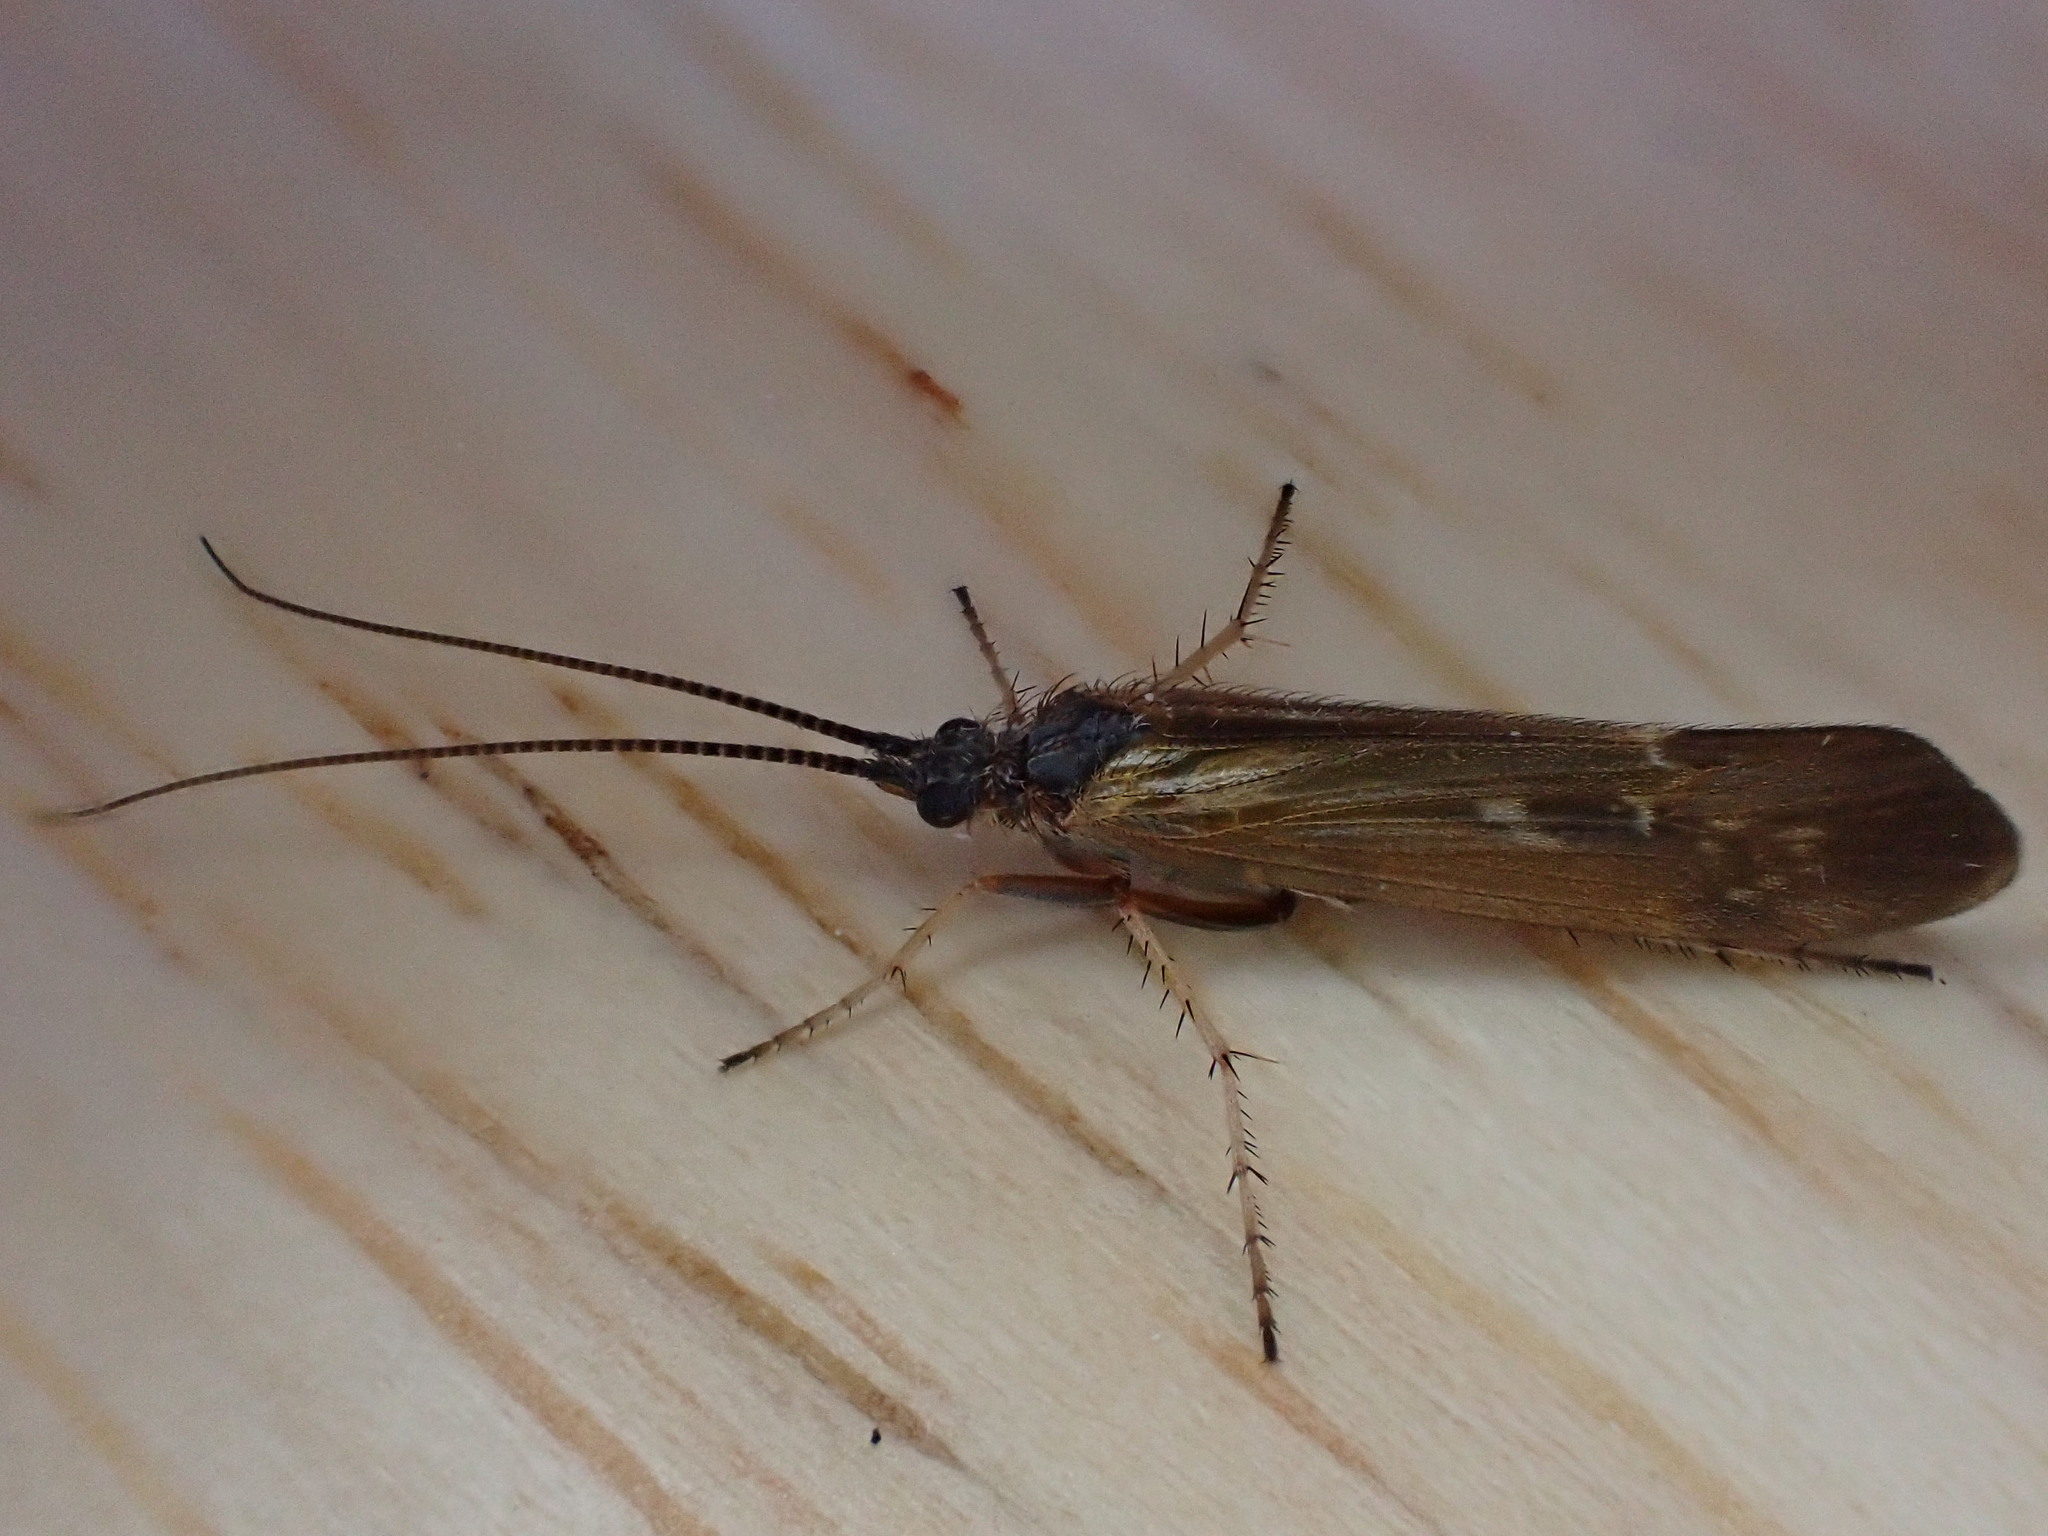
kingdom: Animalia
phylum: Arthropoda
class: Insecta
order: Trichoptera
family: Limnephilidae
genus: Limnephilus
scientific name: Limnephilus auricula
